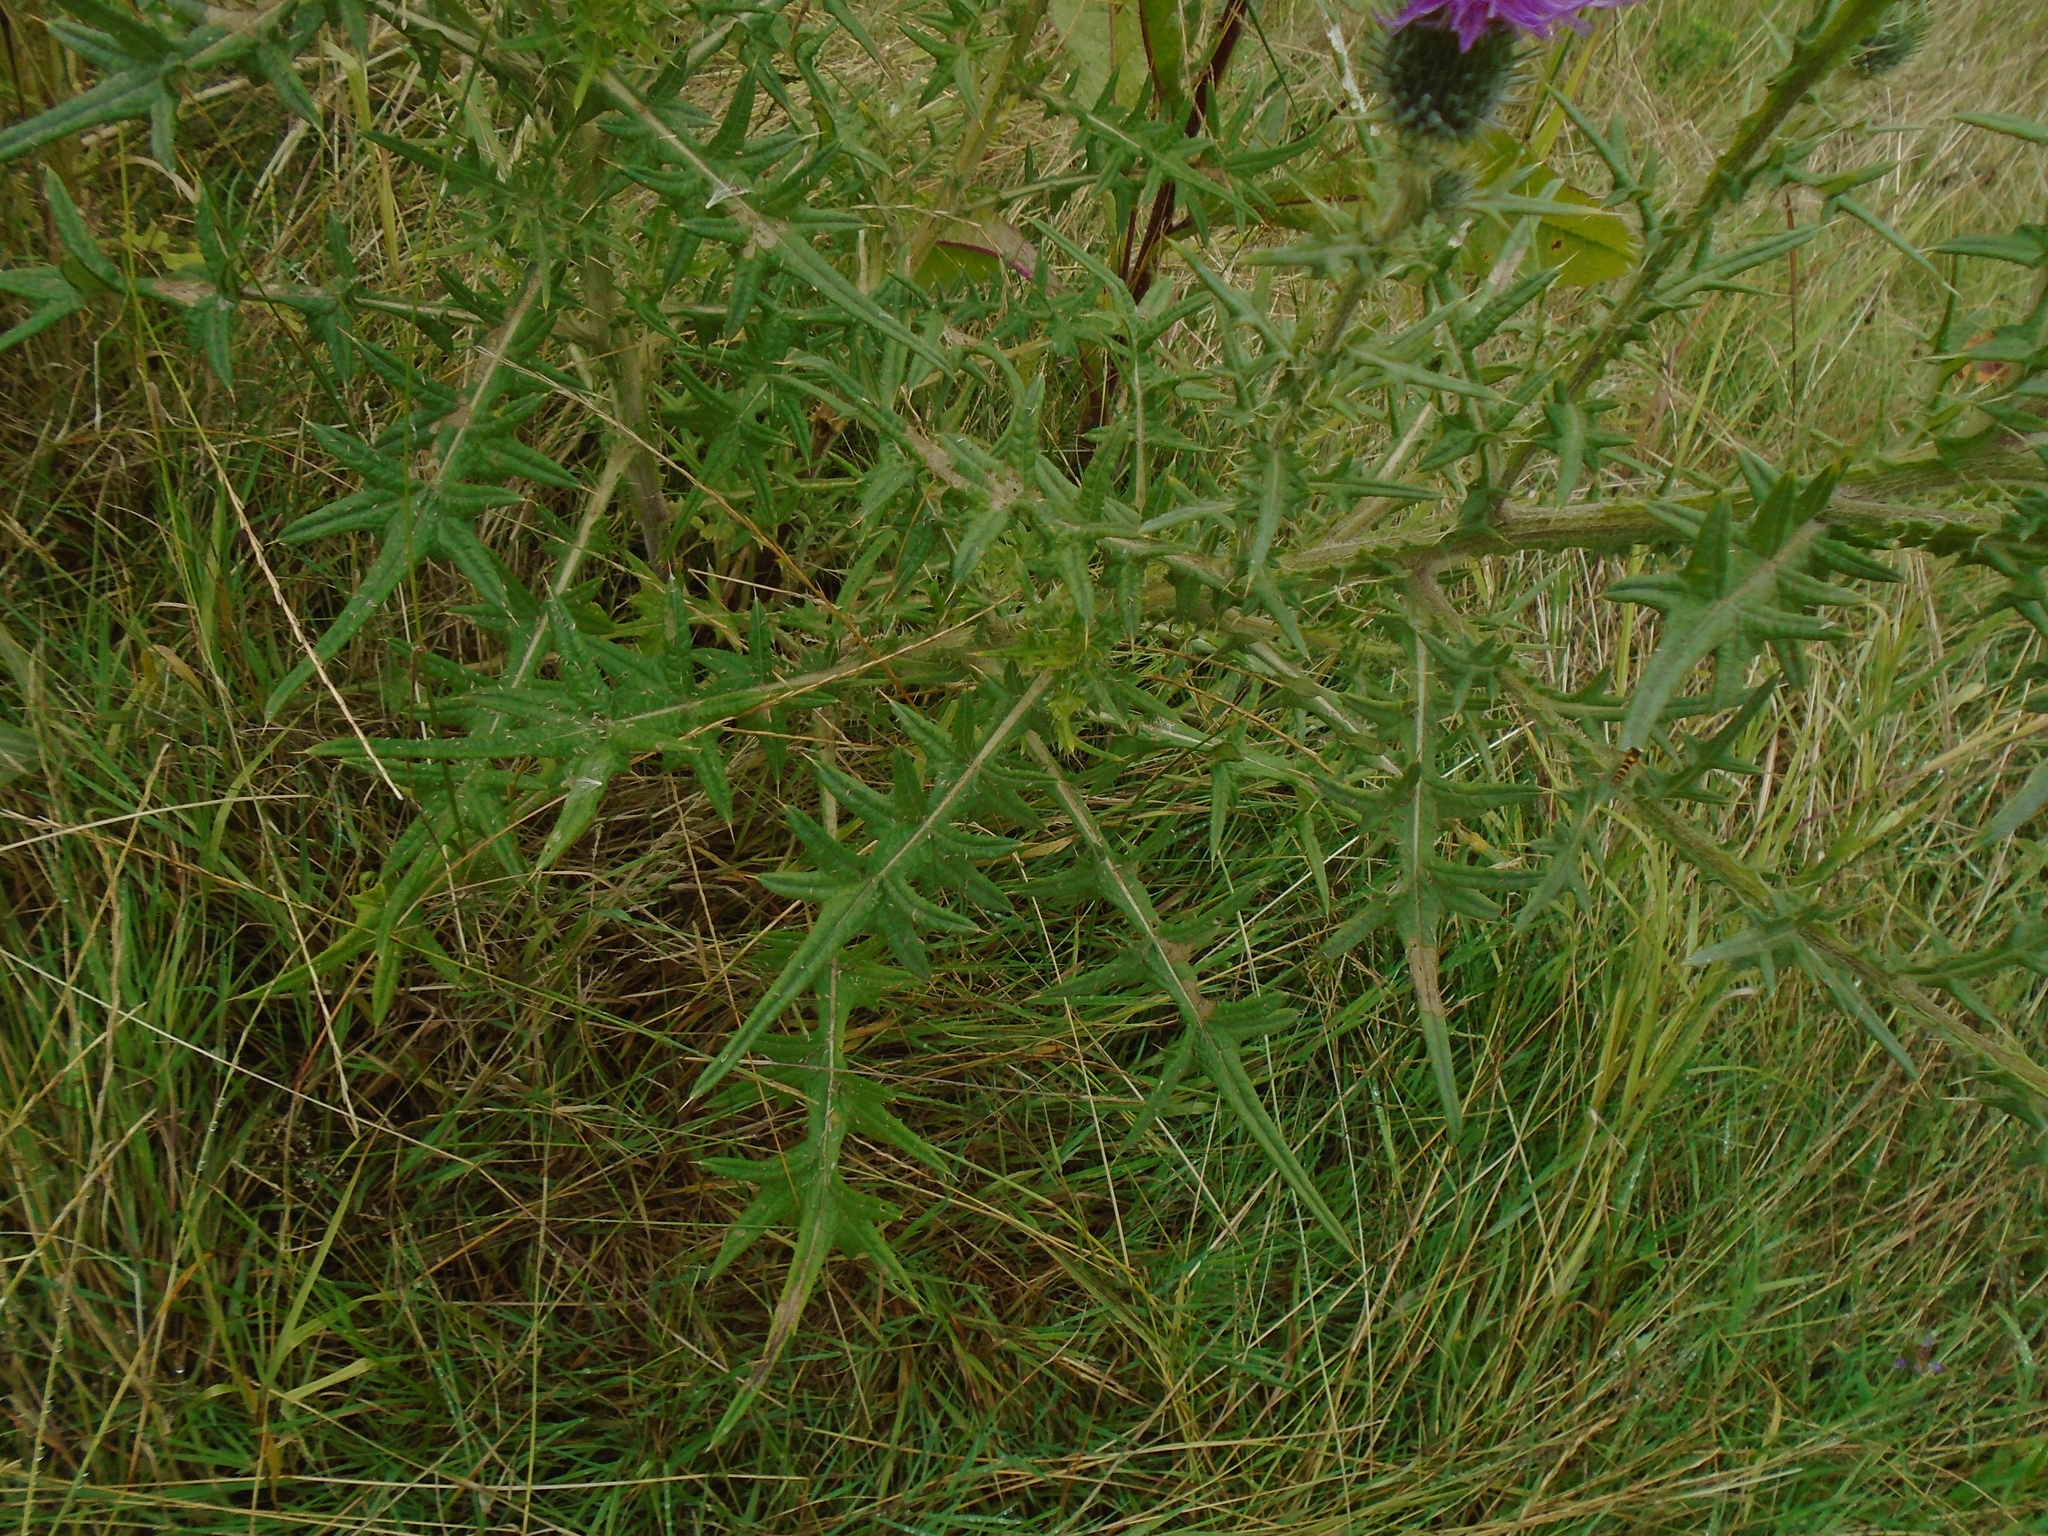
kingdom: Plantae
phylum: Tracheophyta
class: Magnoliopsida
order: Asterales
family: Asteraceae
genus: Cirsium
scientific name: Cirsium vulgare
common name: Bull thistle
